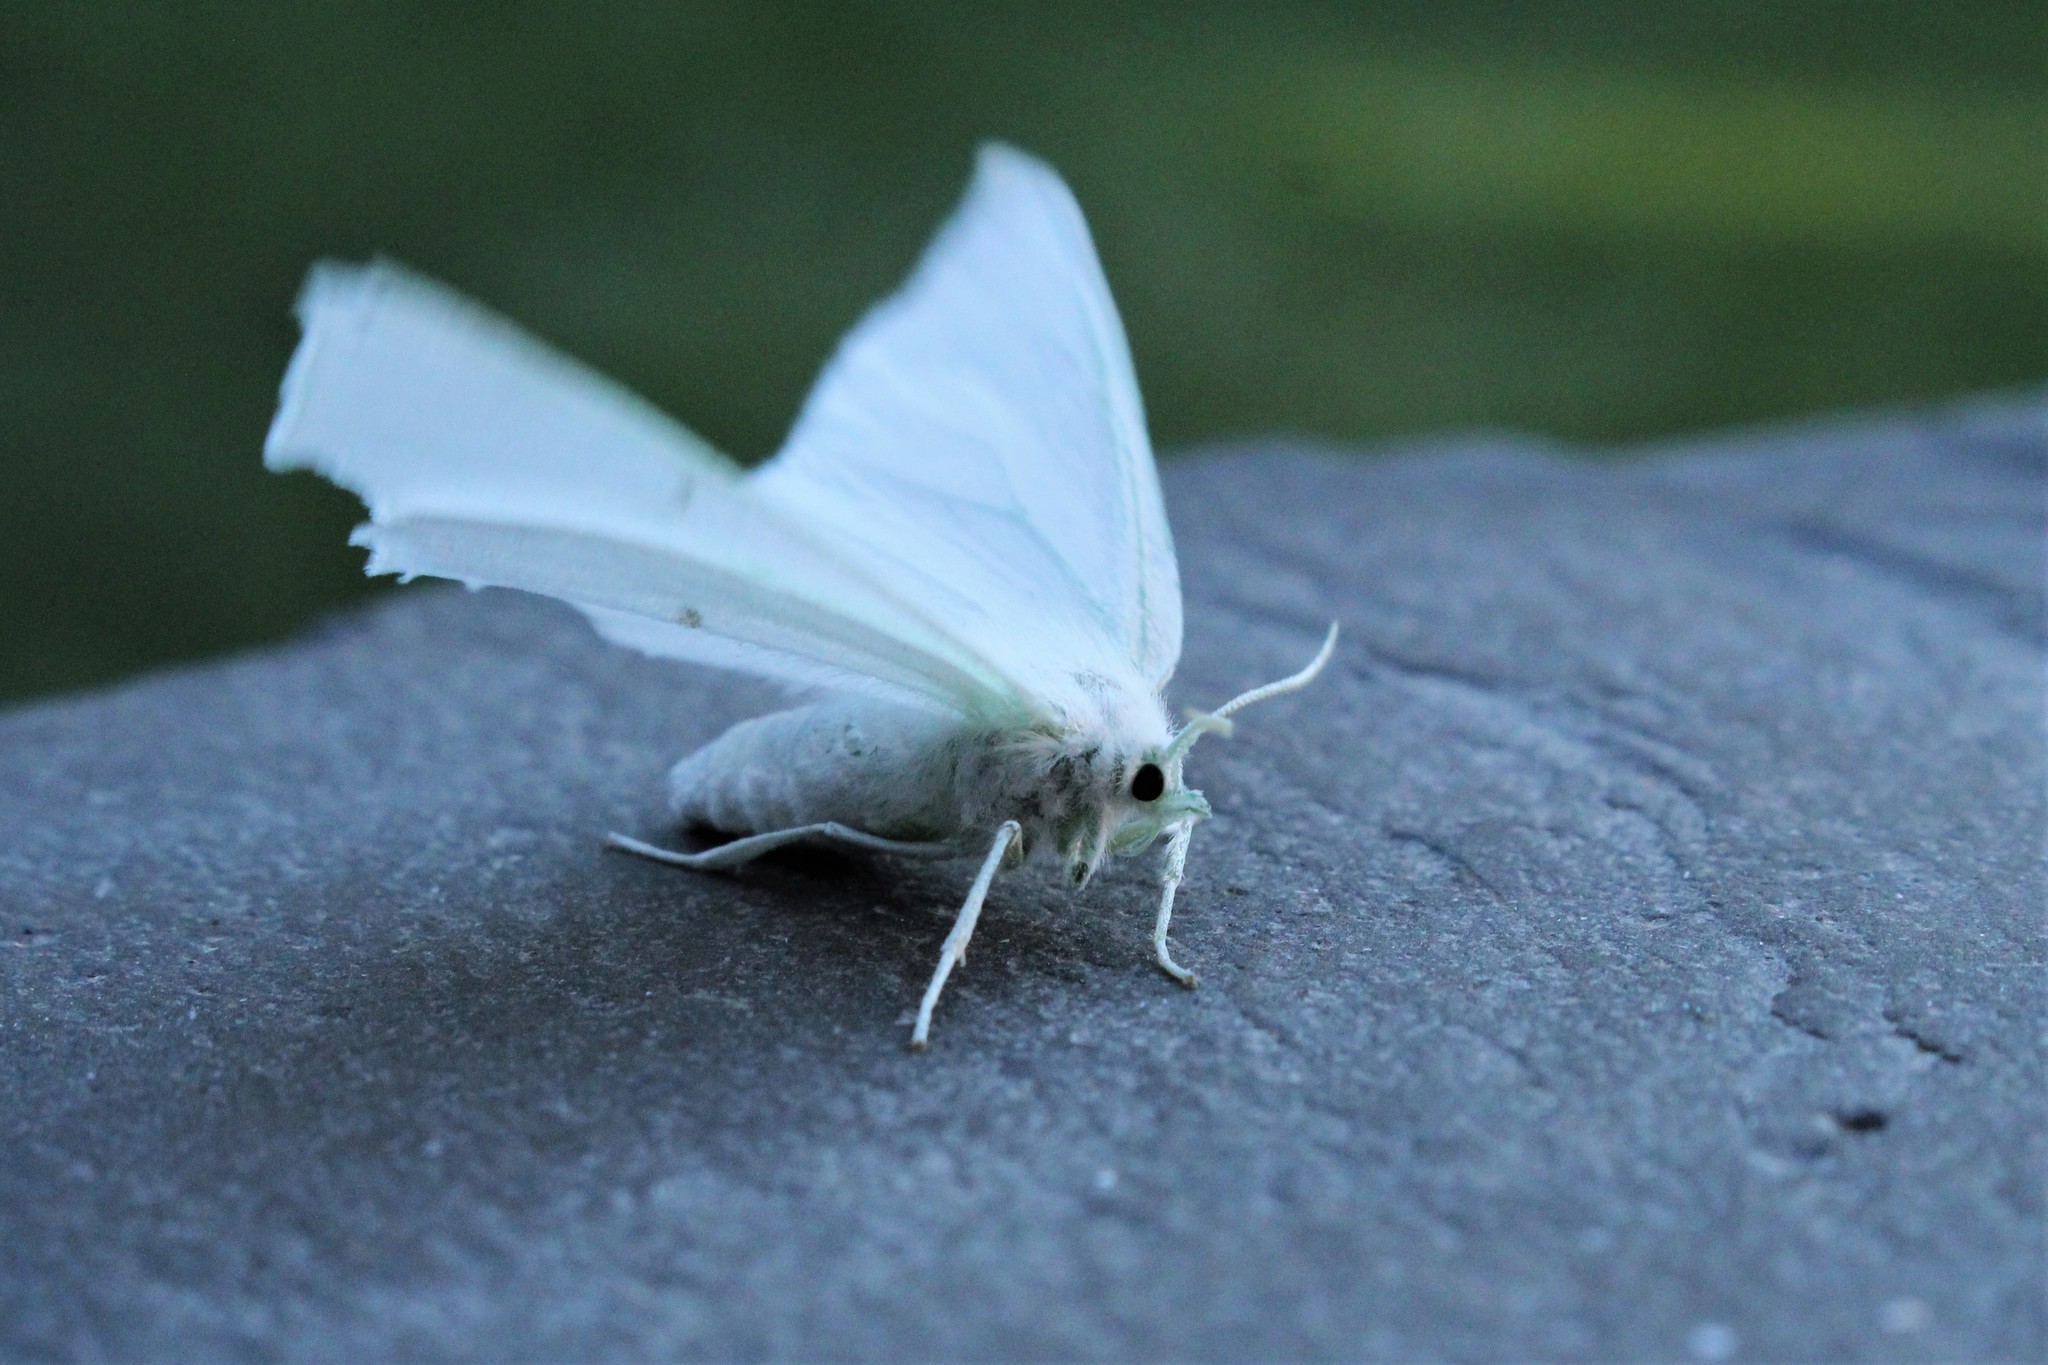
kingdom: Animalia
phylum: Arthropoda
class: Insecta
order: Lepidoptera
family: Geometridae
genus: Ennomos
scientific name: Ennomos subsignaria
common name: Elm spanworm
